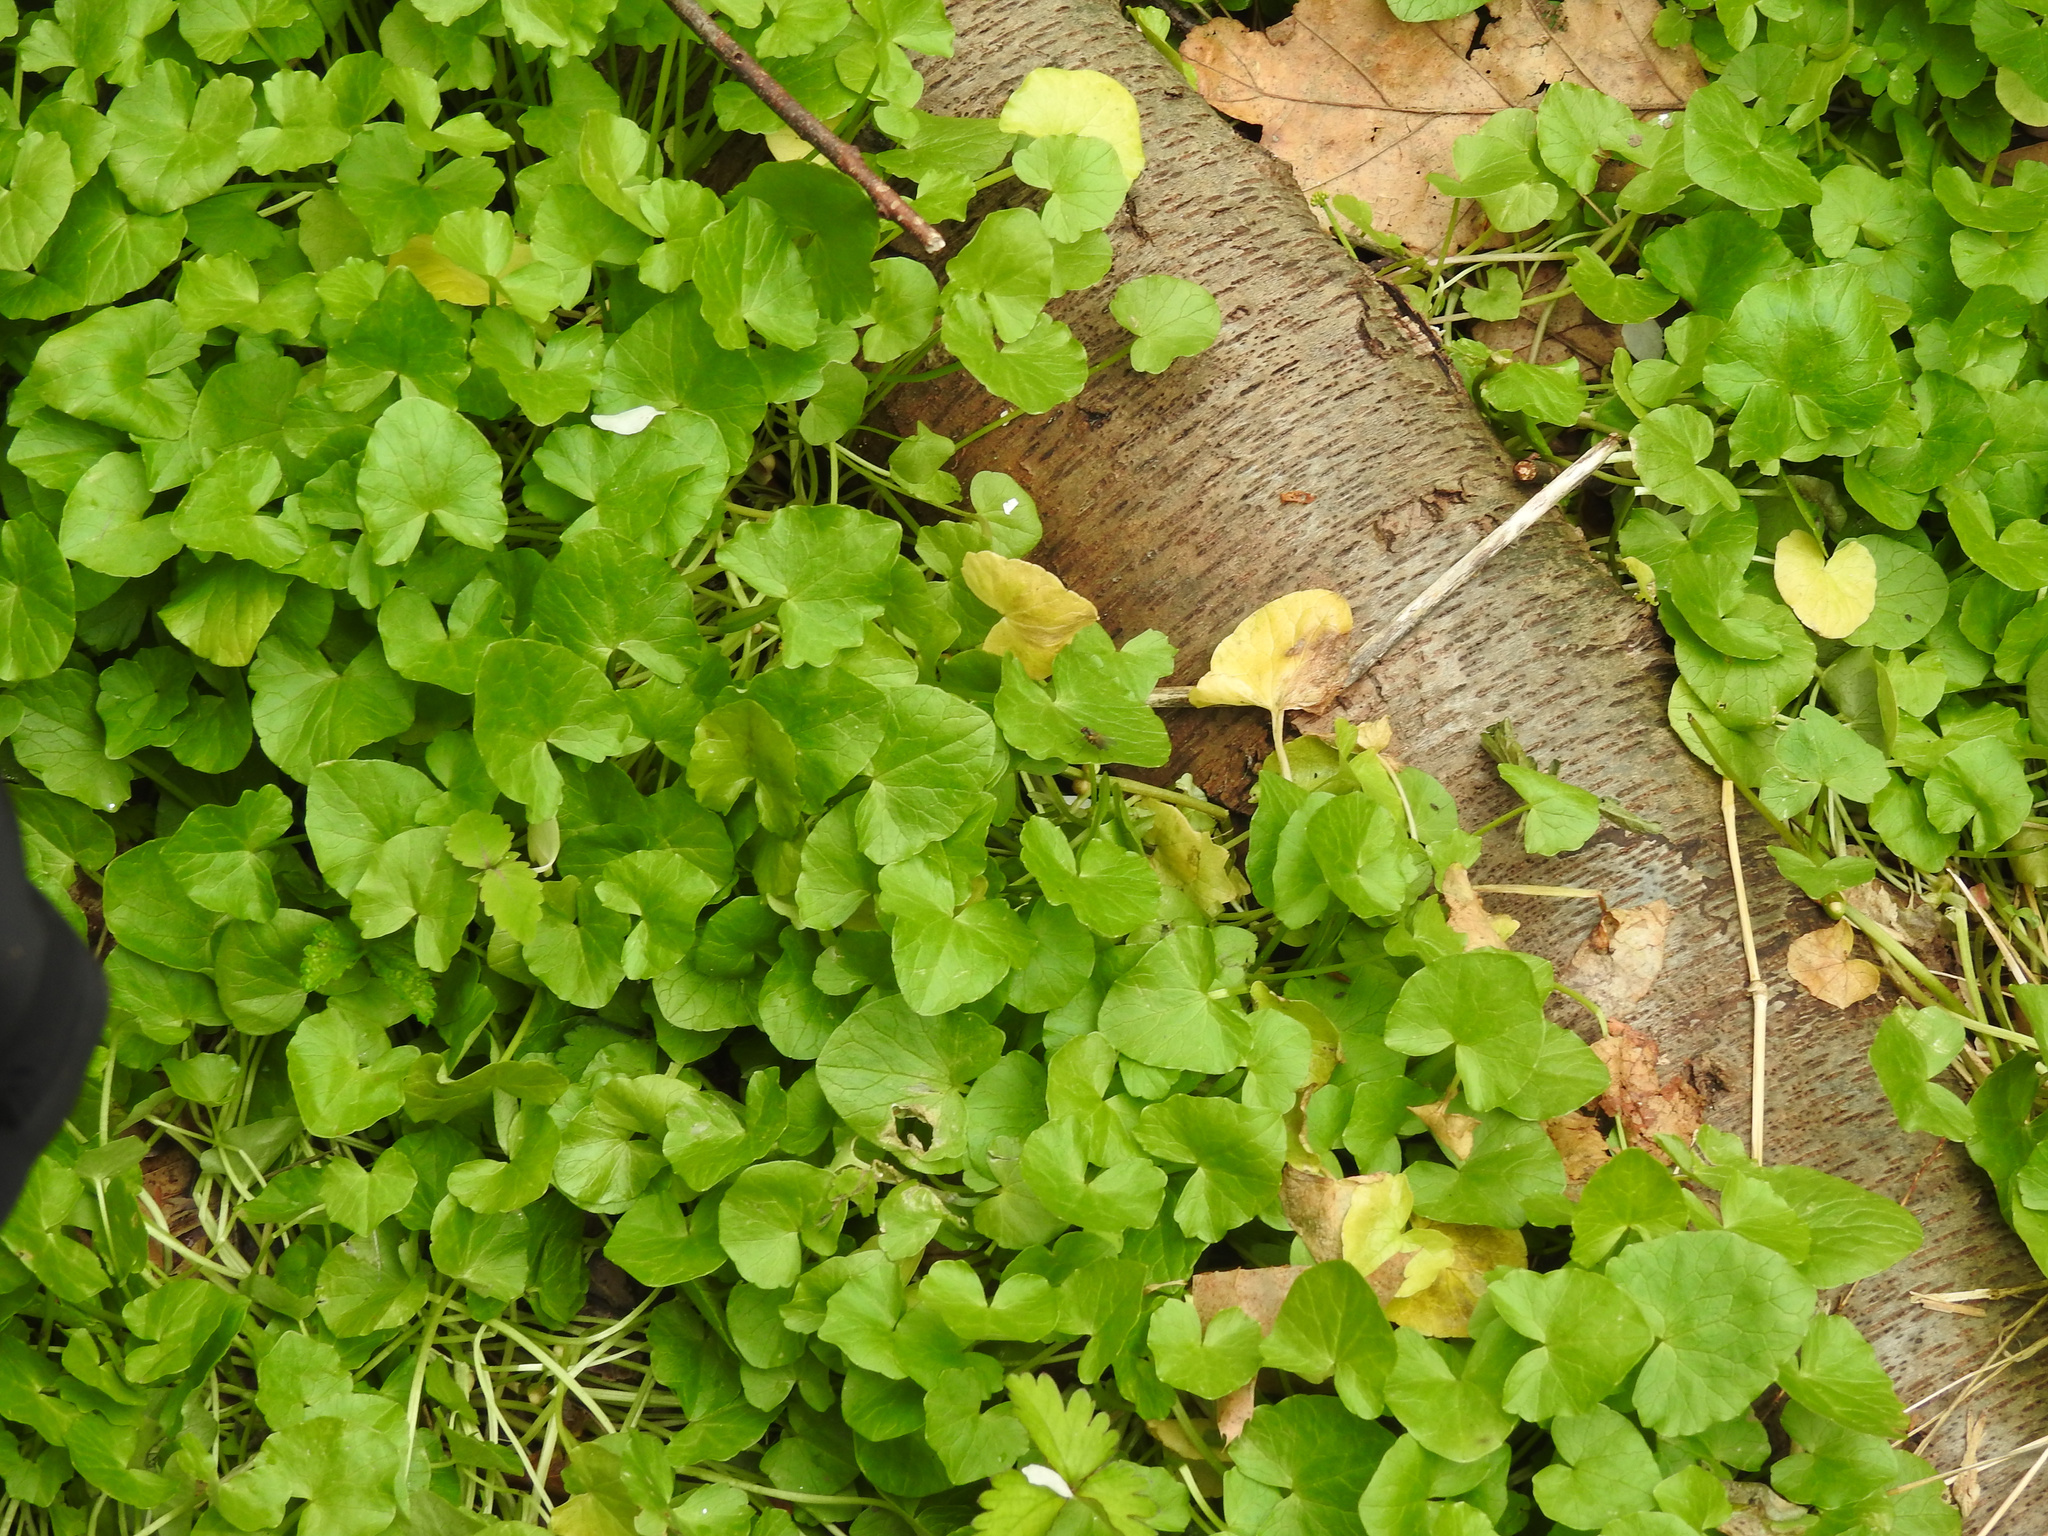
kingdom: Plantae
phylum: Tracheophyta
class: Magnoliopsida
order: Ranunculales
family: Ranunculaceae
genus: Ficaria
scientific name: Ficaria verna
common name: Lesser celandine
